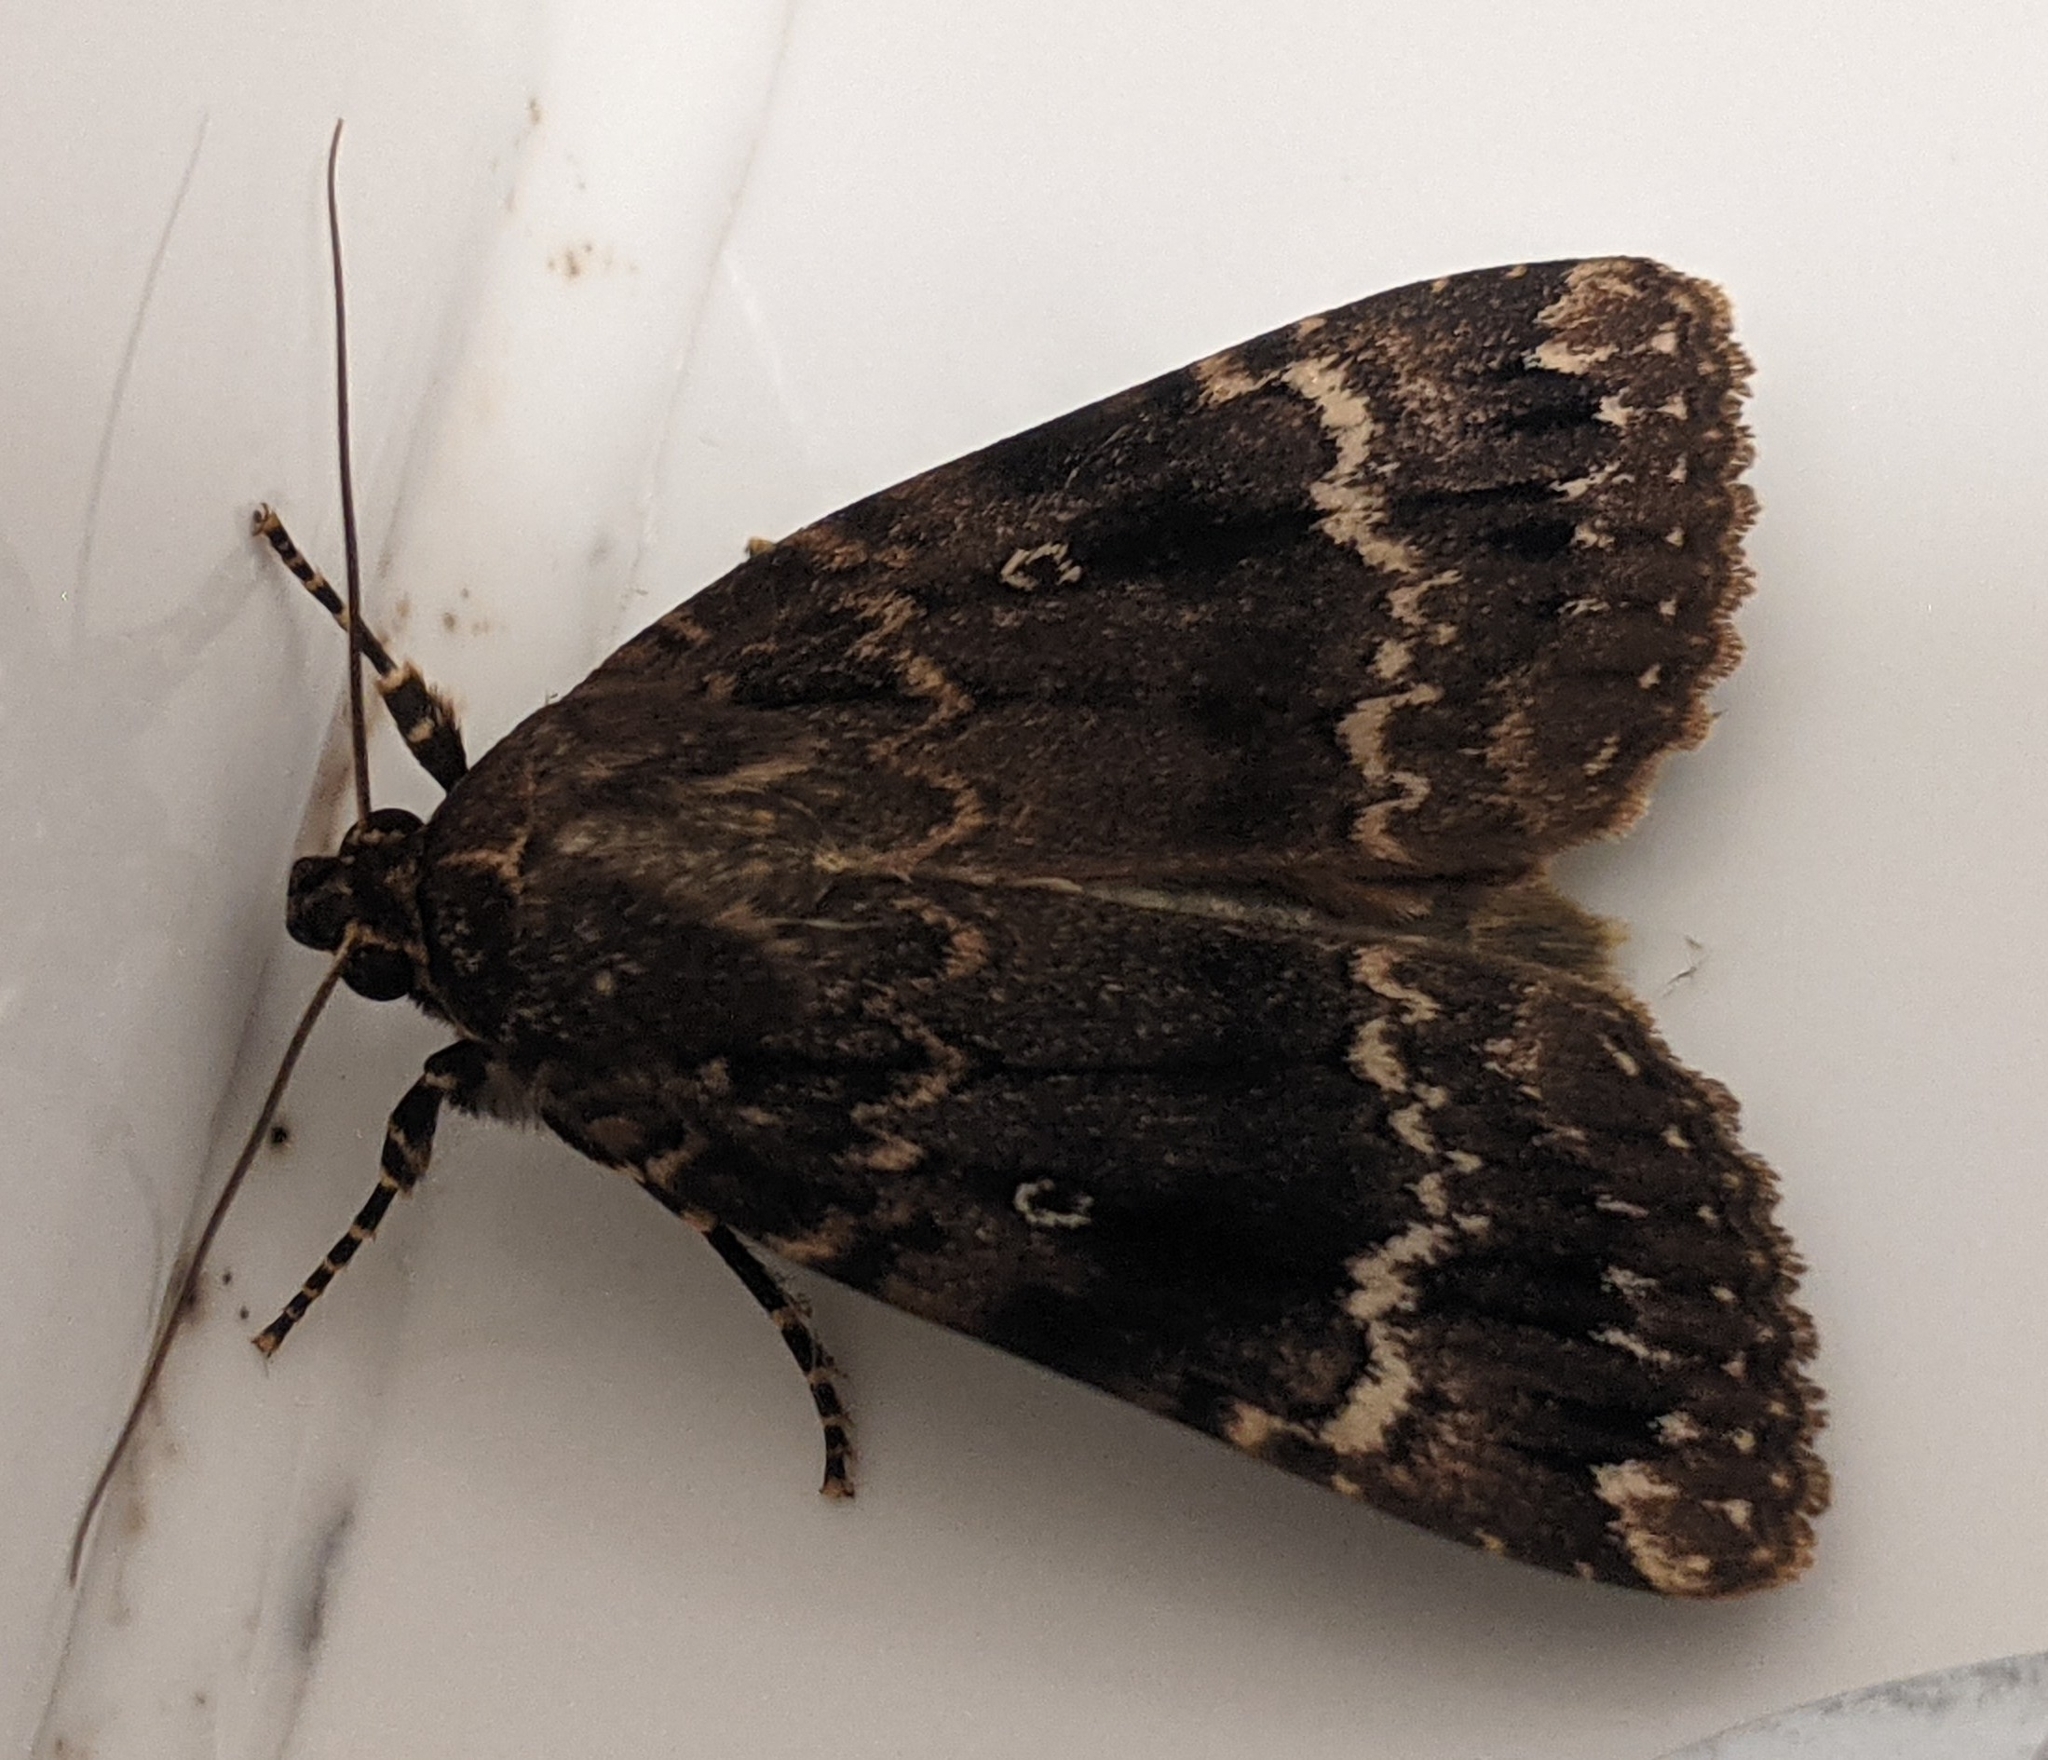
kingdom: Animalia
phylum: Arthropoda
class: Insecta
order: Lepidoptera
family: Noctuidae
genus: Amphipyra
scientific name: Amphipyra pyramidea
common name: Copper underwing
